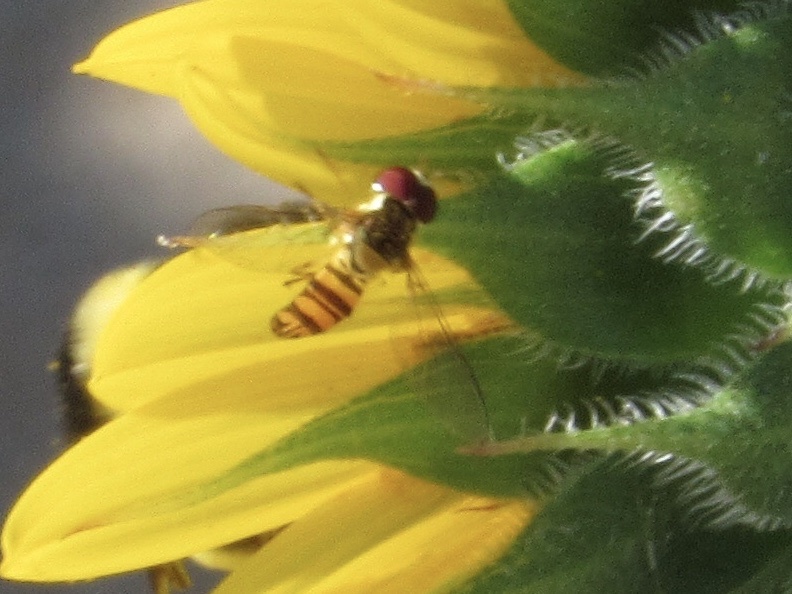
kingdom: Animalia
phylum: Arthropoda
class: Insecta
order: Diptera
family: Syrphidae
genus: Allograpta
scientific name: Allograpta obliqua
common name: Common oblique syrphid
